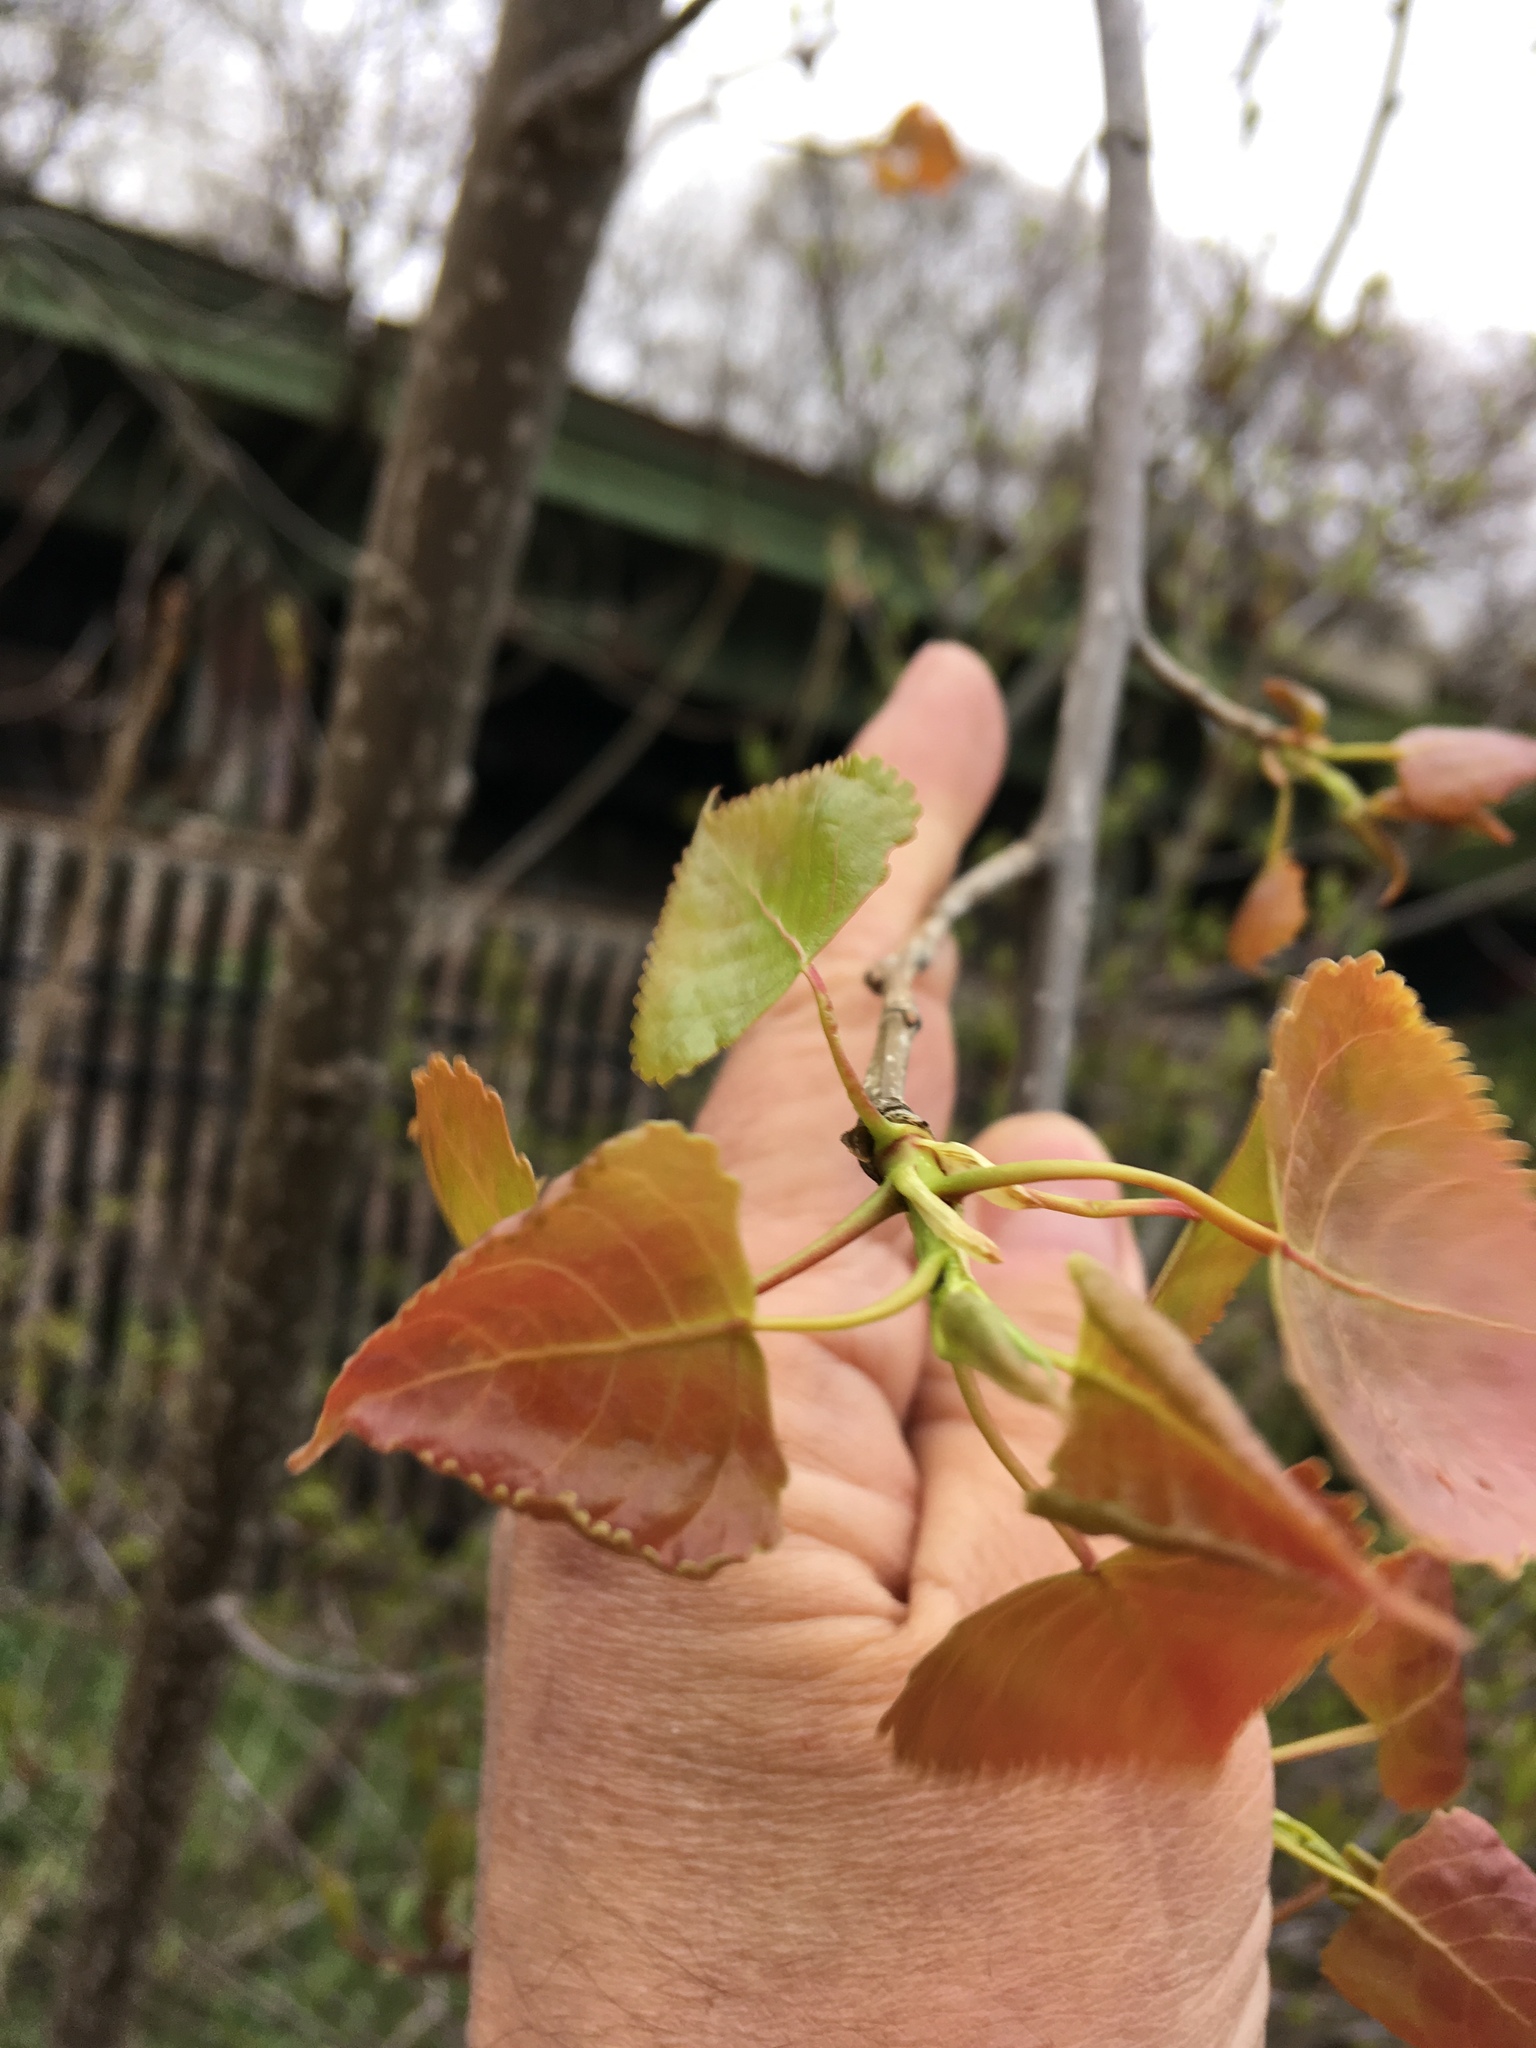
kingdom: Plantae
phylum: Tracheophyta
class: Magnoliopsida
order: Malpighiales
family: Salicaceae
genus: Populus
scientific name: Populus tremuloides
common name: Quaking aspen
